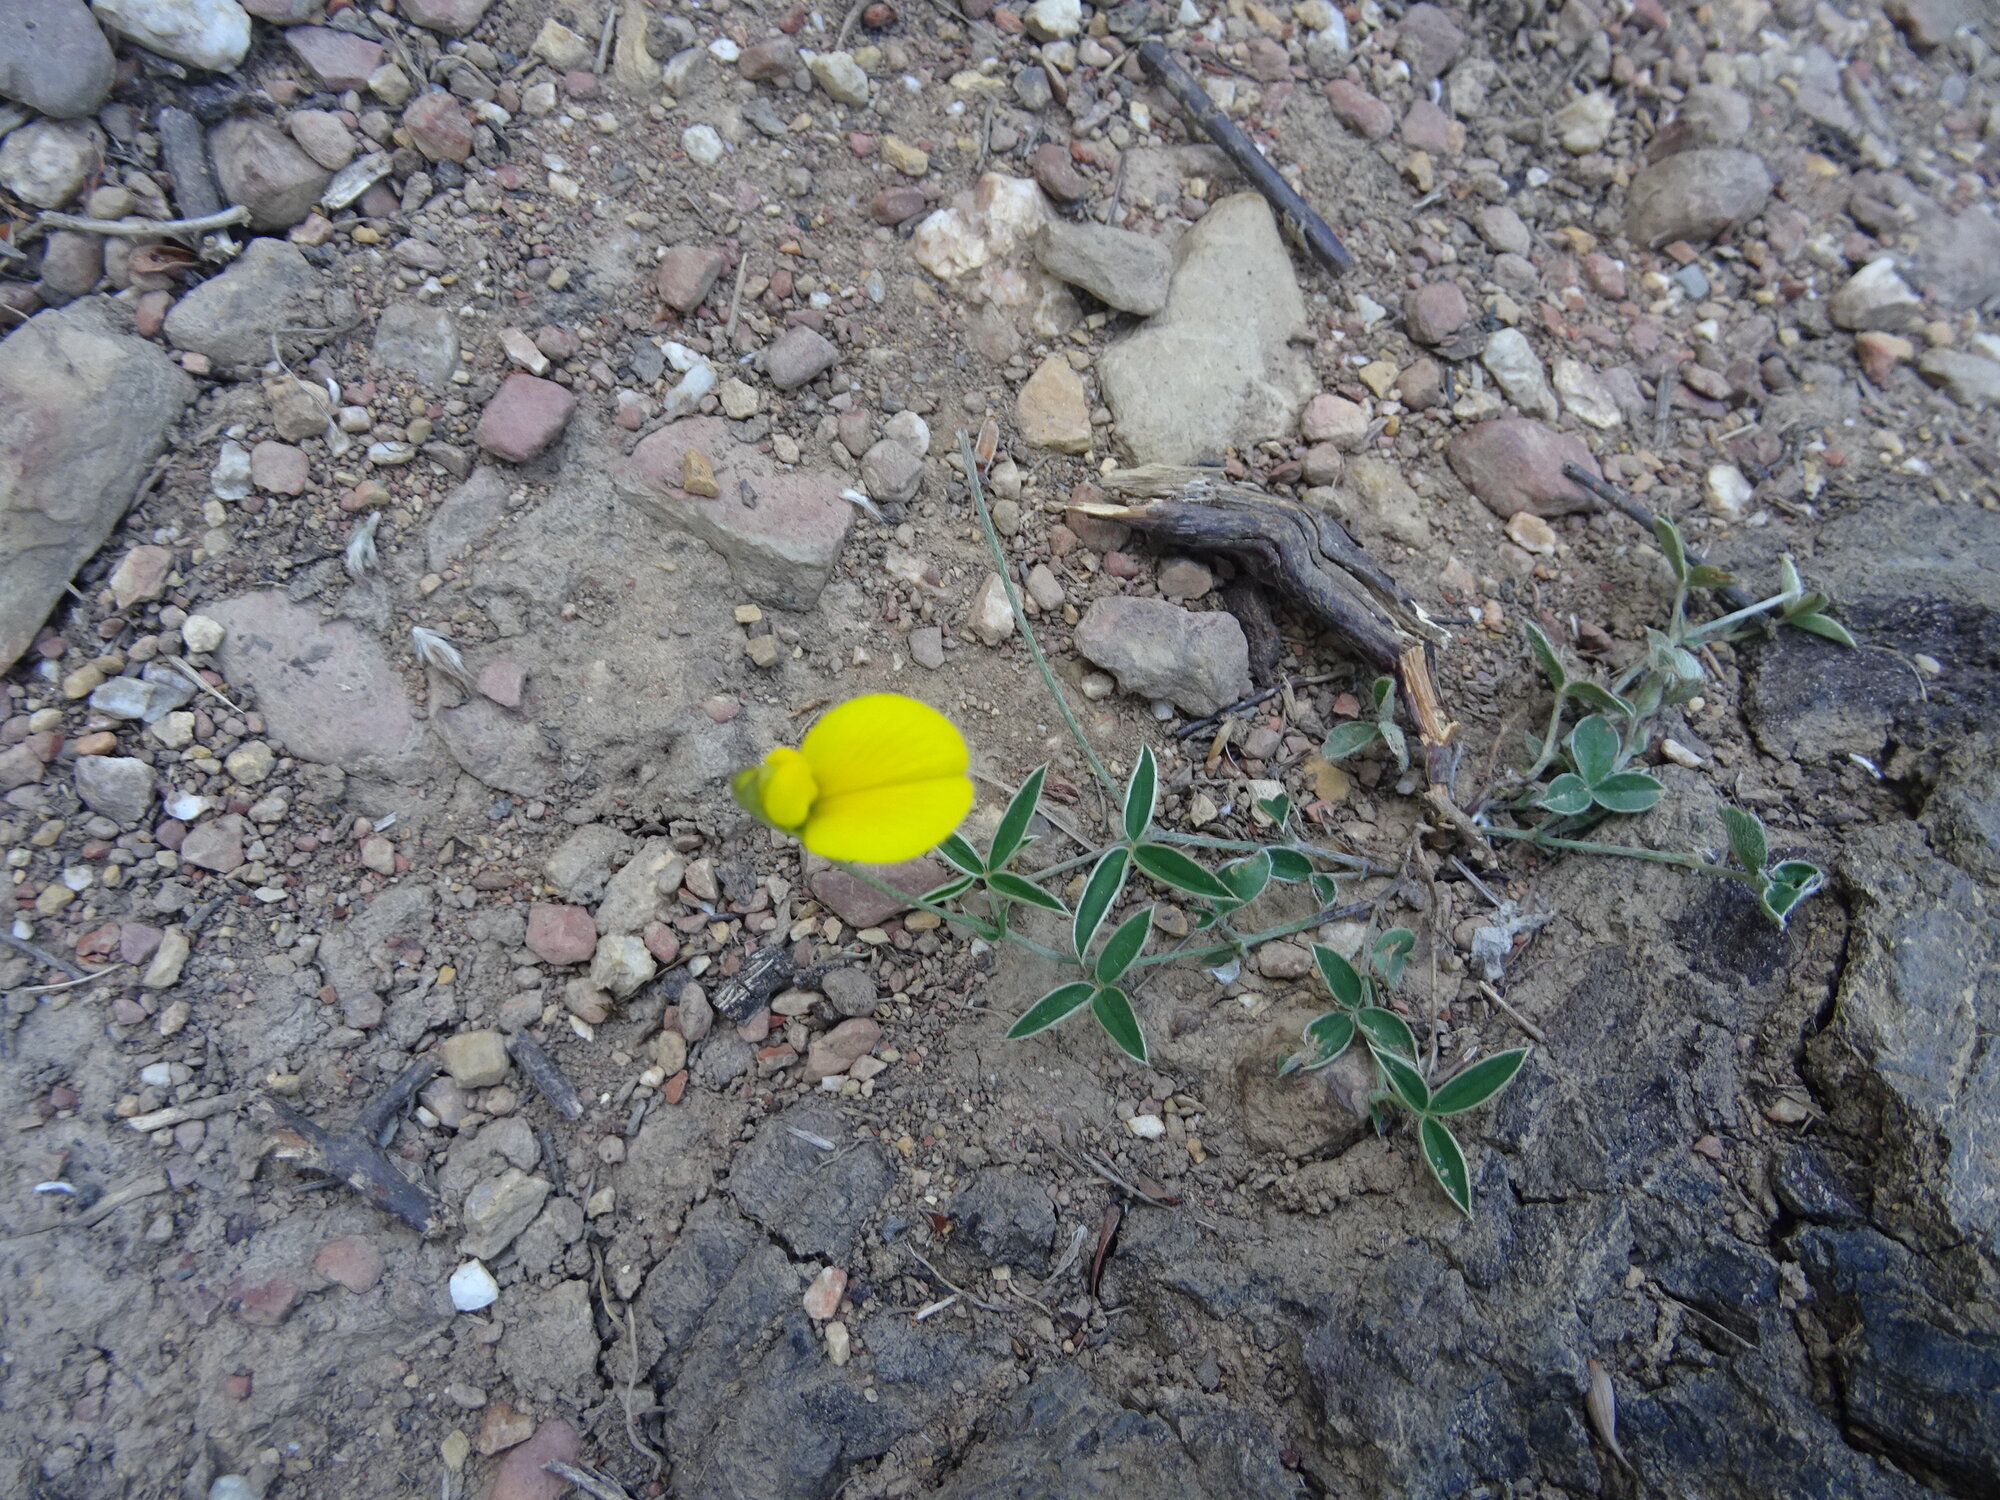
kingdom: Plantae
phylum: Tracheophyta
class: Magnoliopsida
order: Fabales
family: Fabaceae
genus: Argyrolobium
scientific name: Argyrolobium lunare
